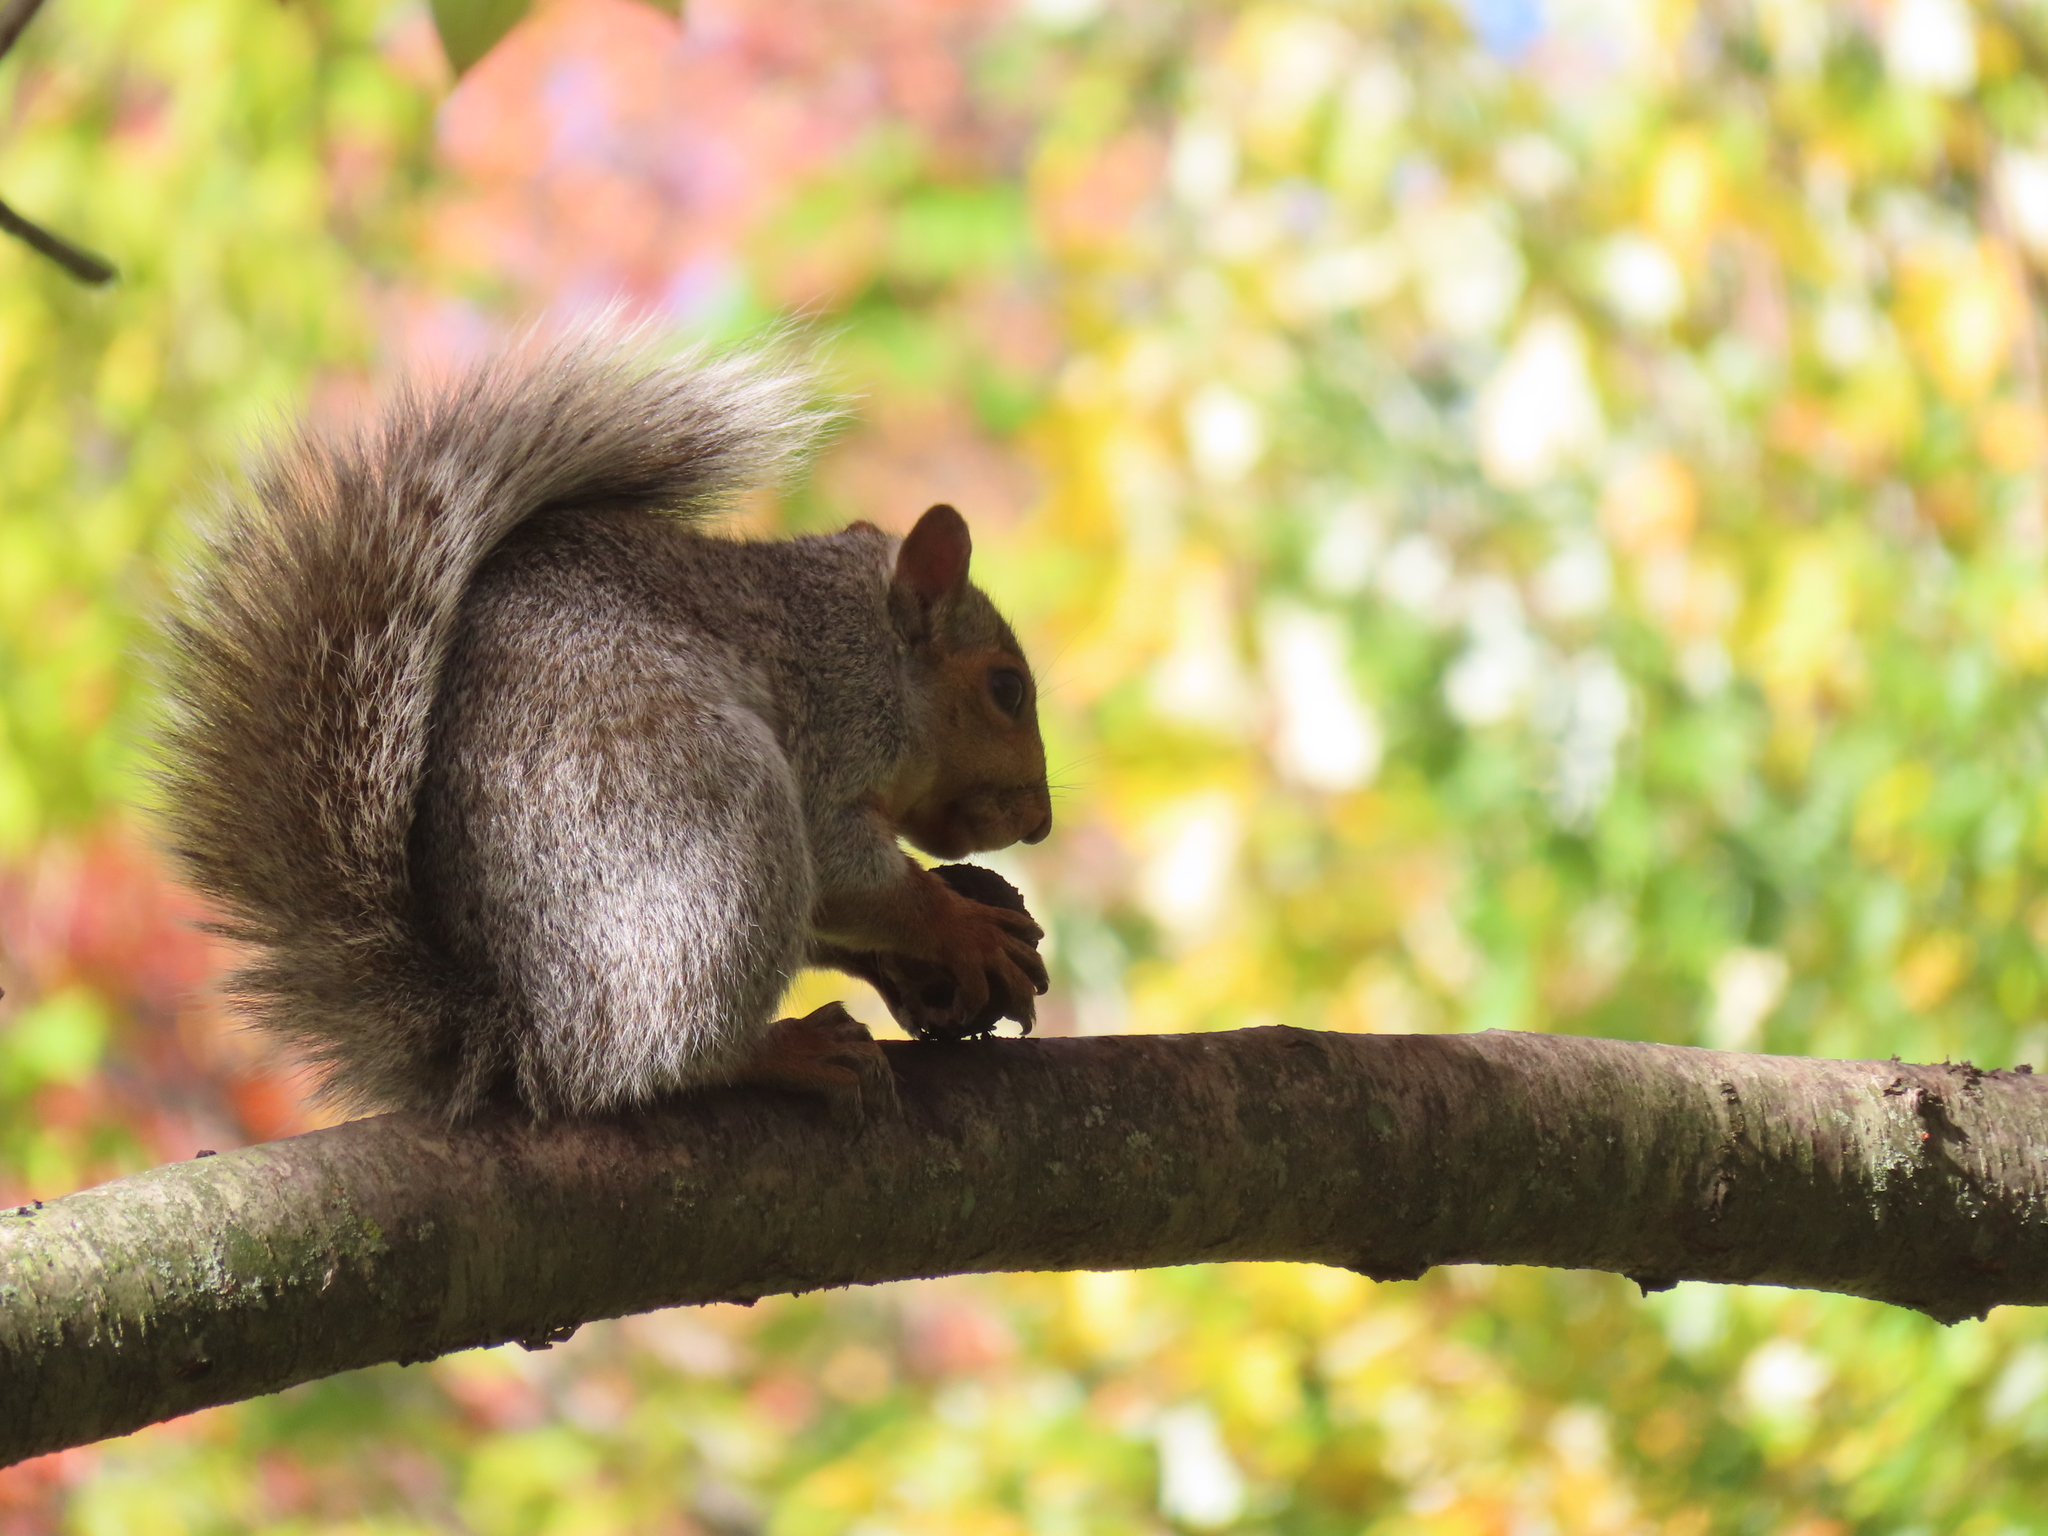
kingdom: Animalia
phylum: Chordata
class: Mammalia
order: Rodentia
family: Sciuridae
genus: Sciurus
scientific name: Sciurus carolinensis
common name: Eastern gray squirrel
